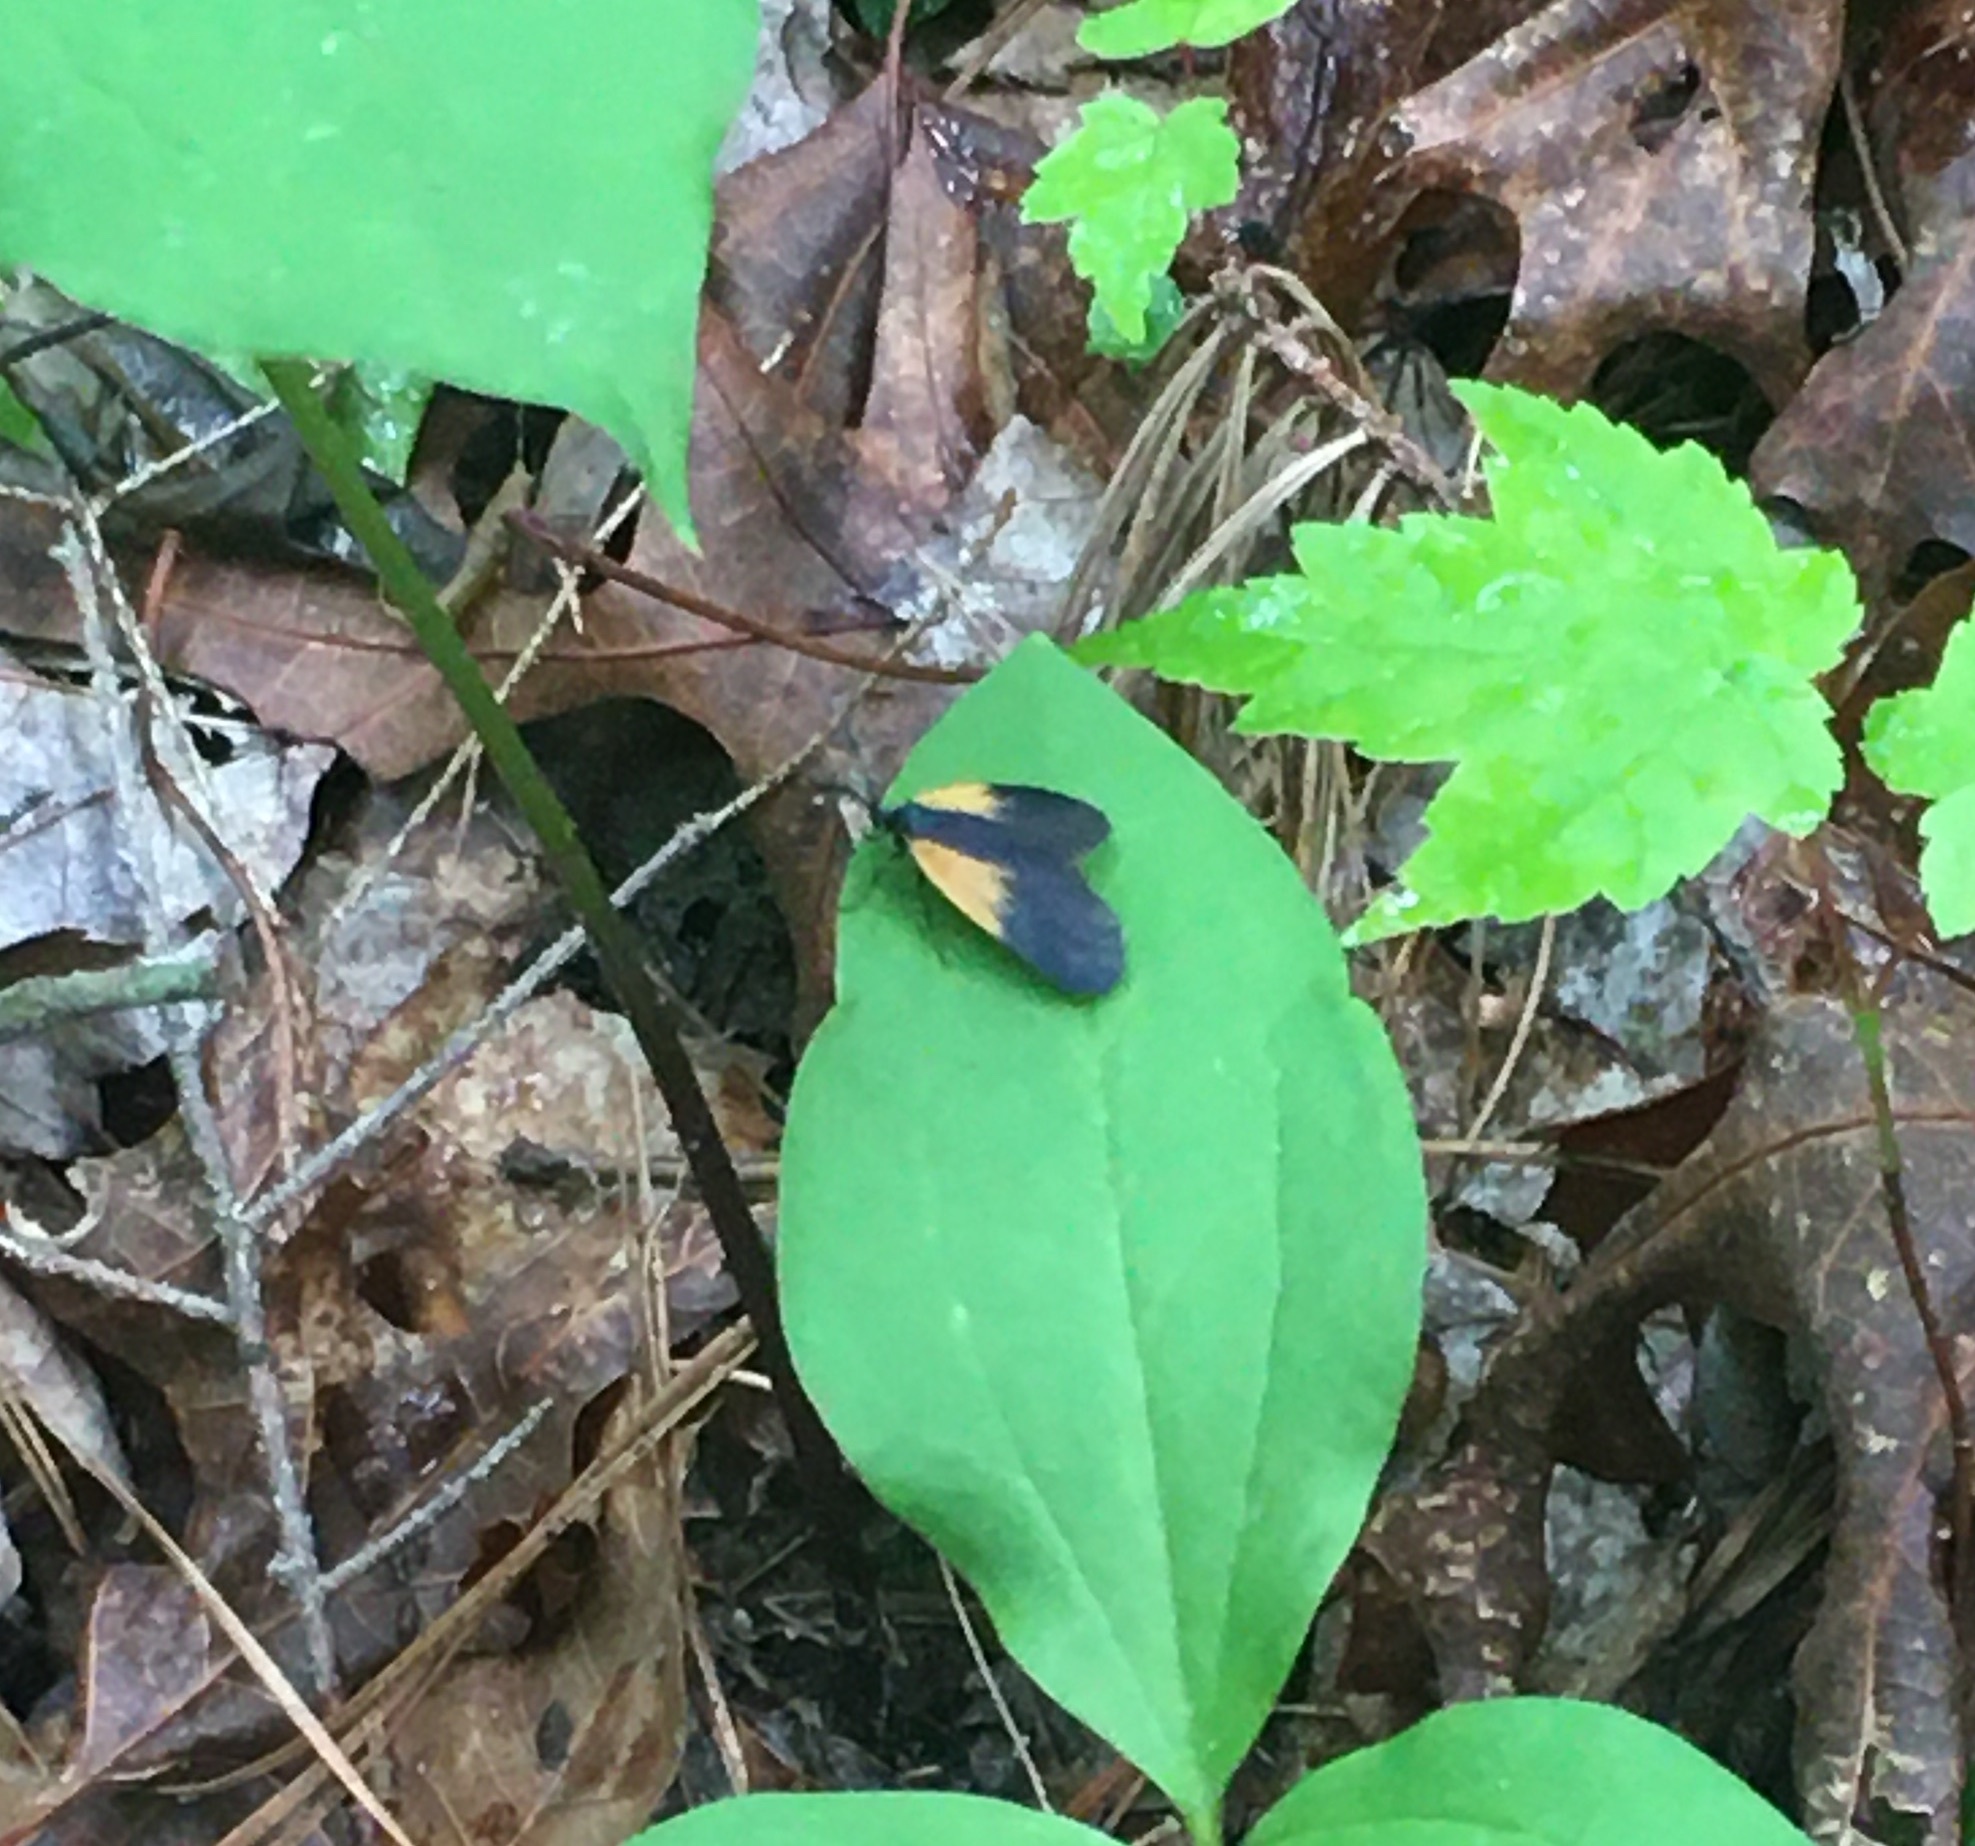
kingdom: Animalia
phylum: Arthropoda
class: Insecta
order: Lepidoptera
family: Zygaenidae
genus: Malthaca
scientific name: Malthaca dimidiata
